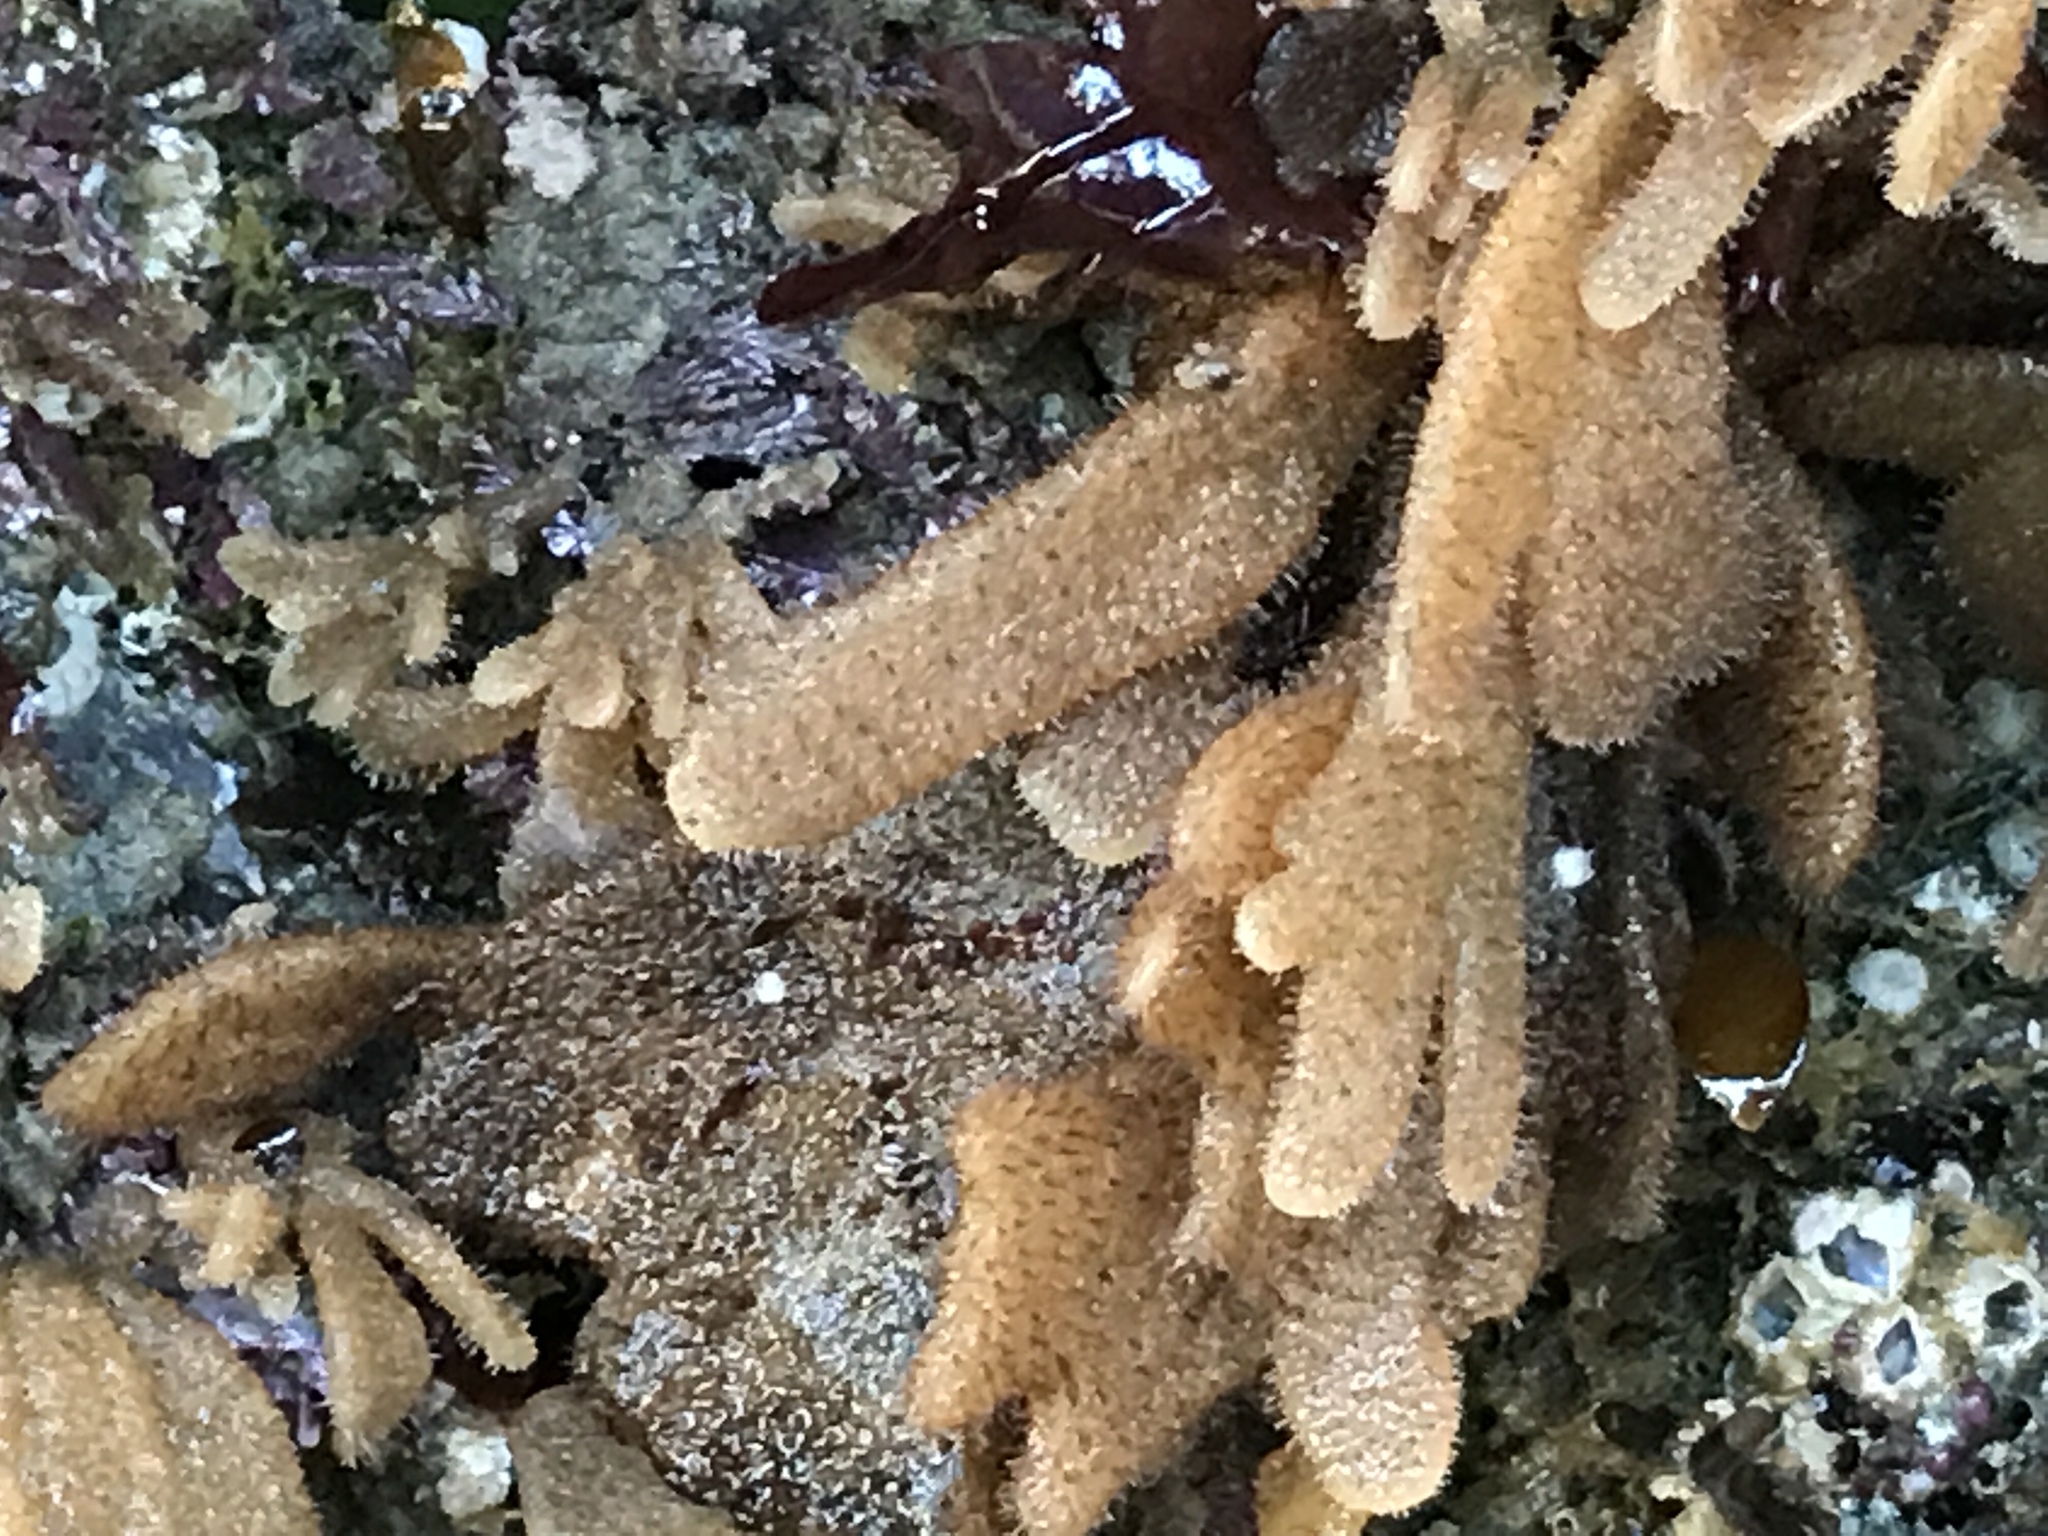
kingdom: Animalia
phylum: Bryozoa
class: Gymnolaemata
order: Ctenostomatida
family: Flustrellidridae
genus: Flustrellidra
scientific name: Flustrellidra corniculata
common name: Spiny leather bryozoan
